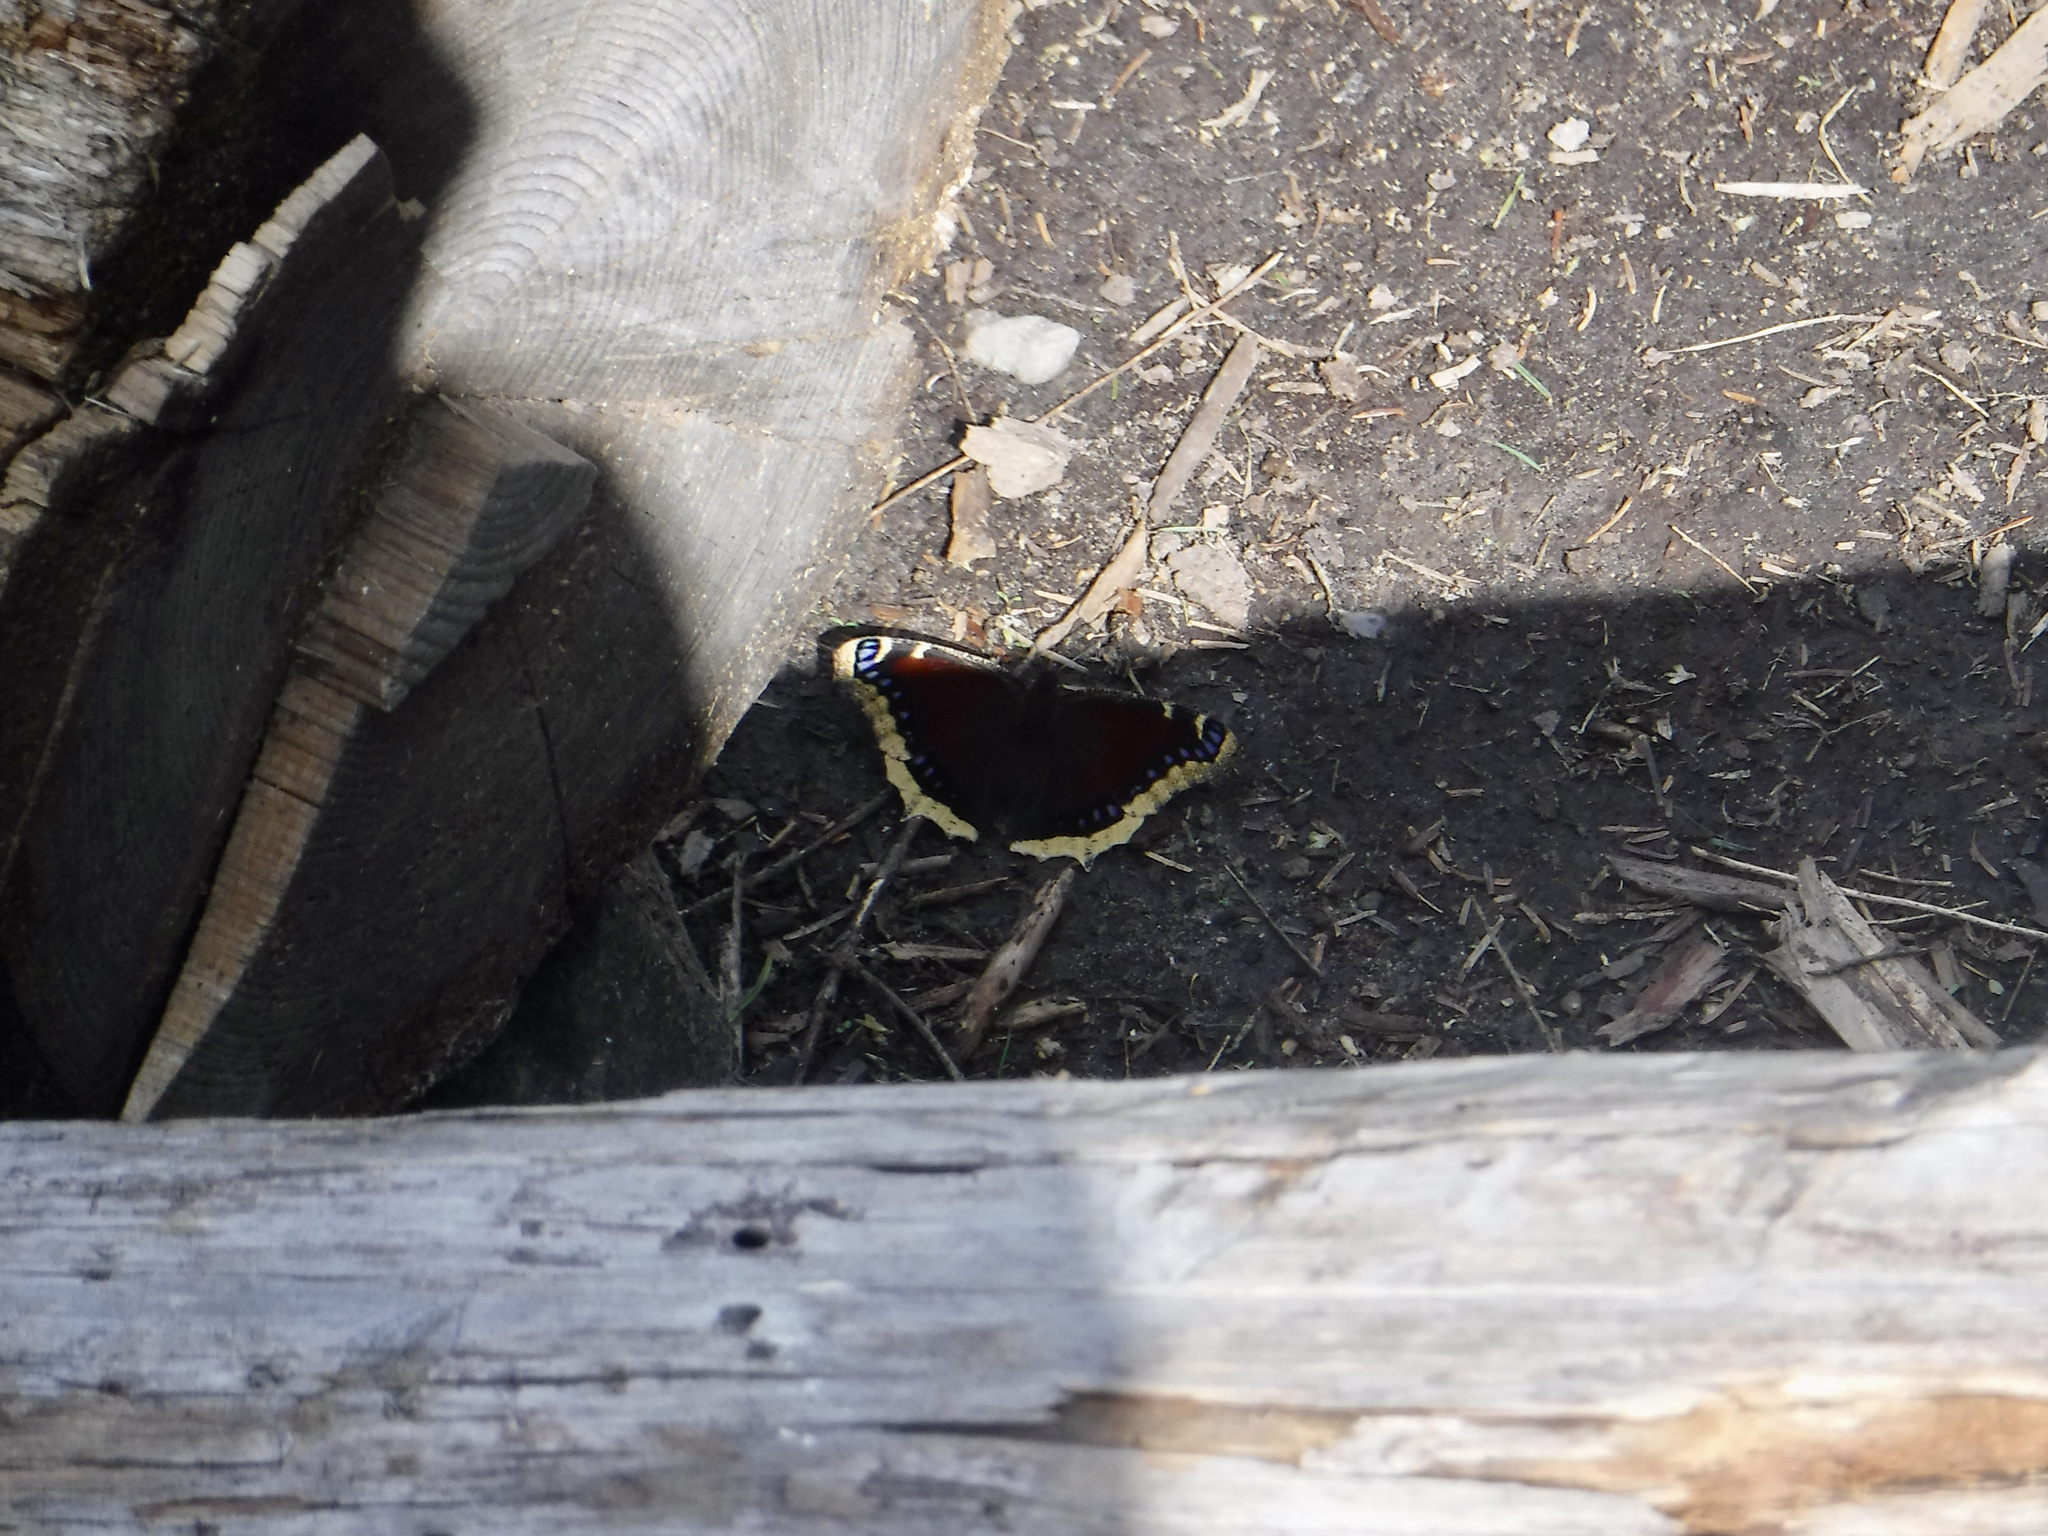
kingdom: Animalia
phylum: Arthropoda
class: Insecta
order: Lepidoptera
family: Nymphalidae
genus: Nymphalis
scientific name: Nymphalis antiopa
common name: Camberwell beauty
